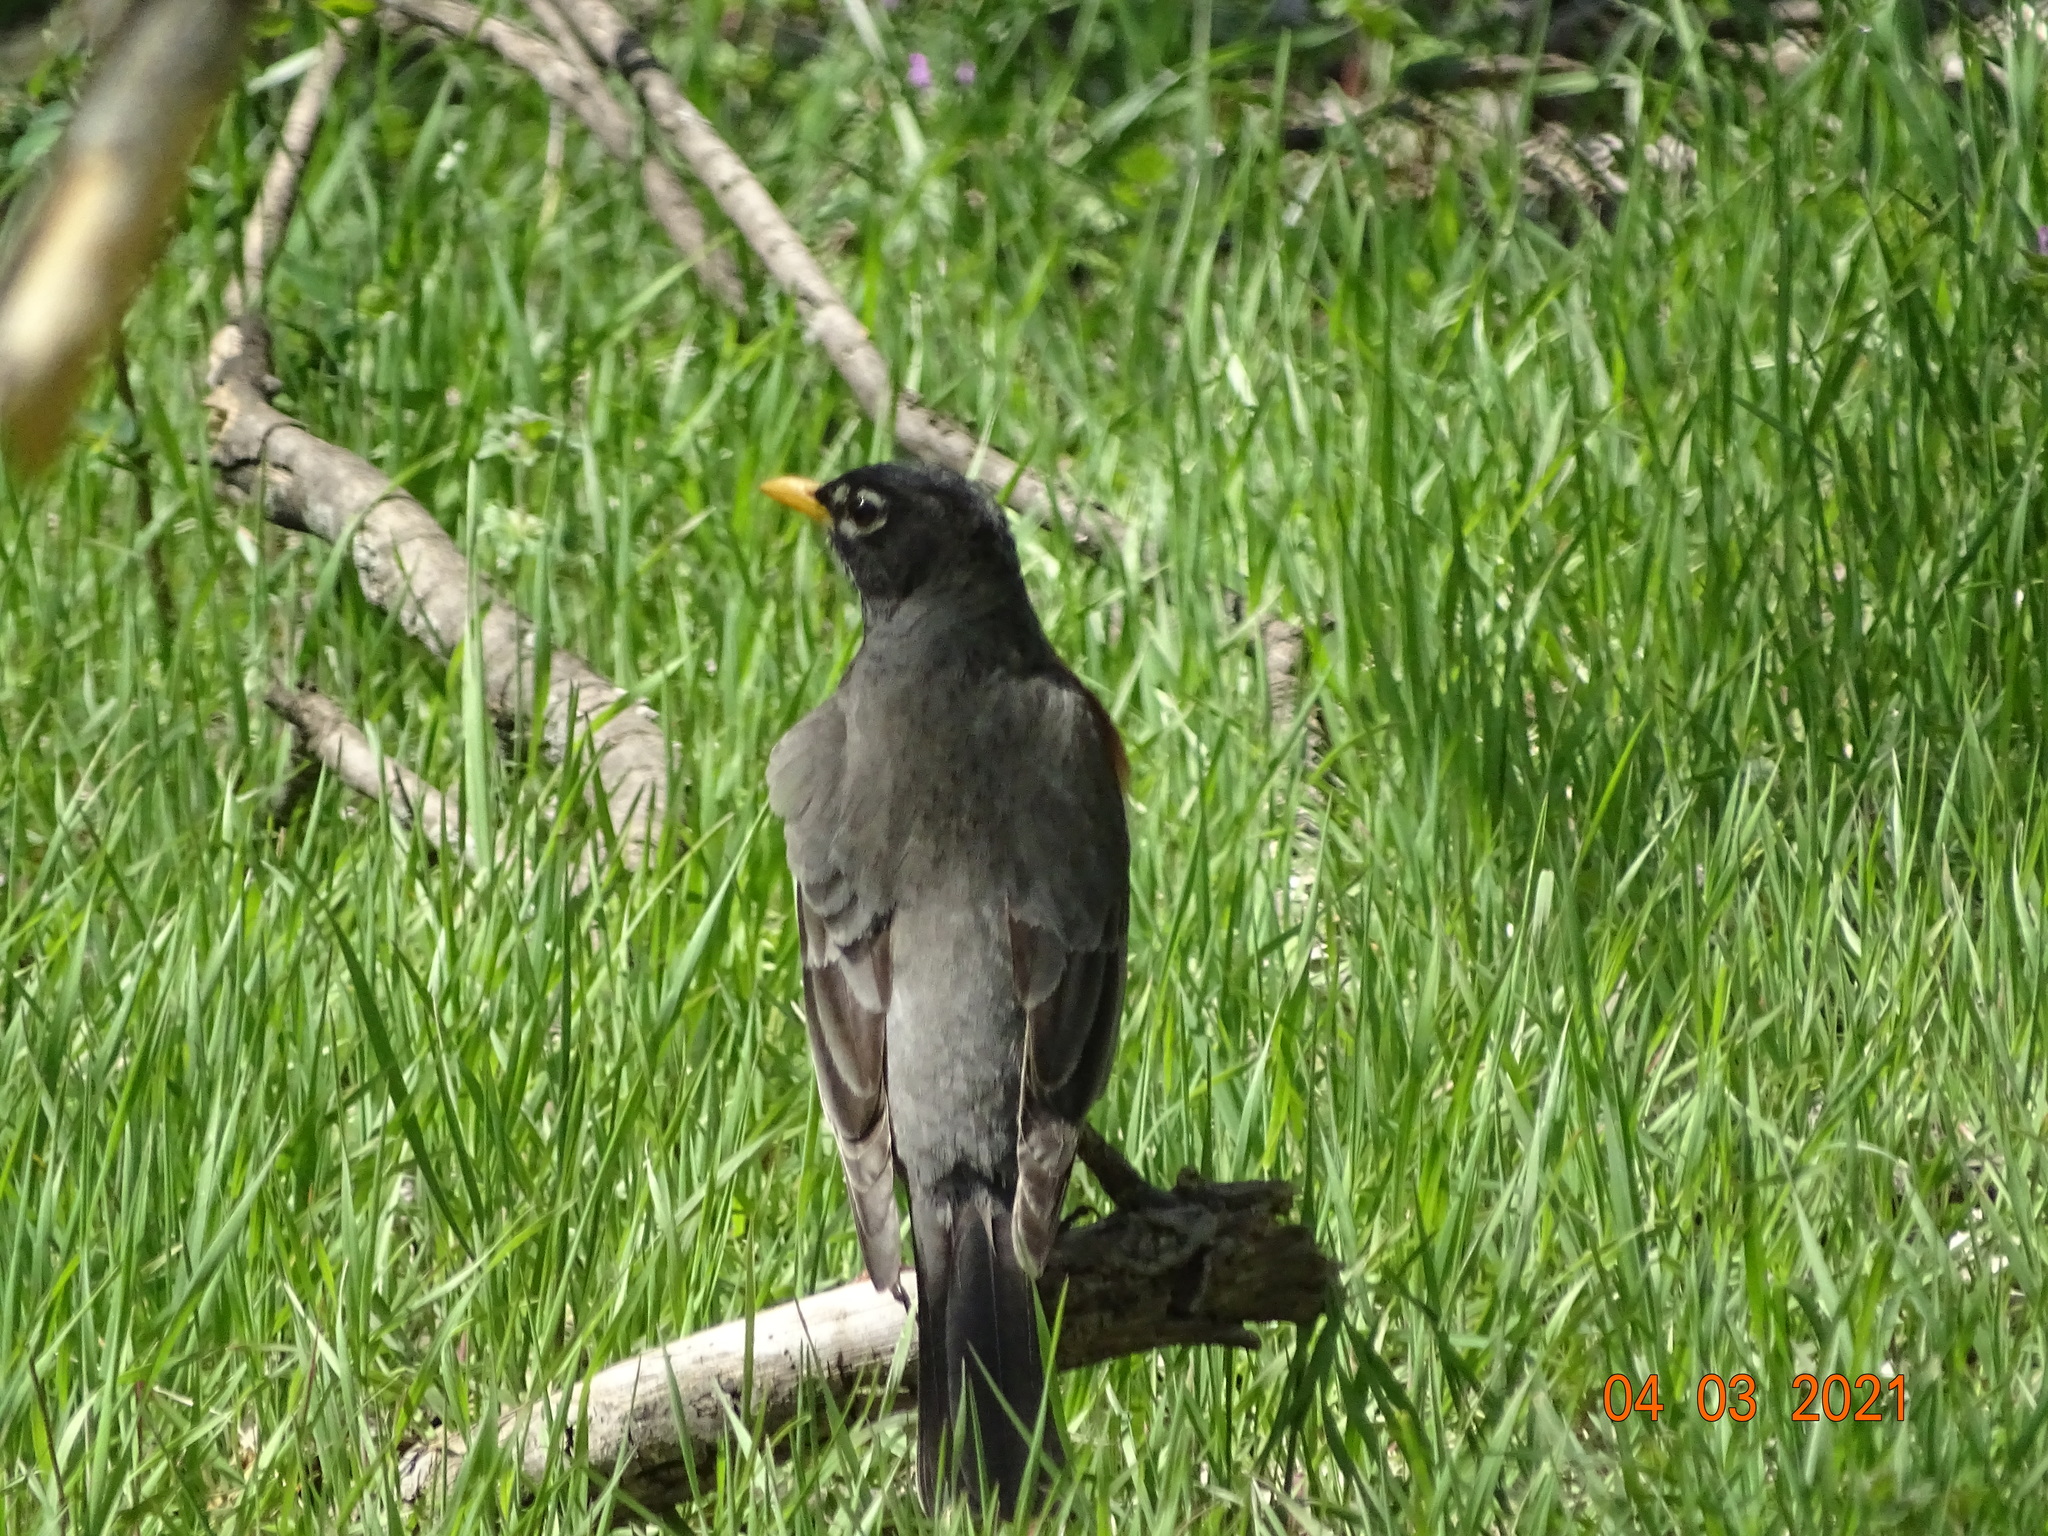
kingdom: Animalia
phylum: Chordata
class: Aves
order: Passeriformes
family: Turdidae
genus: Turdus
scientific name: Turdus migratorius
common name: American robin
